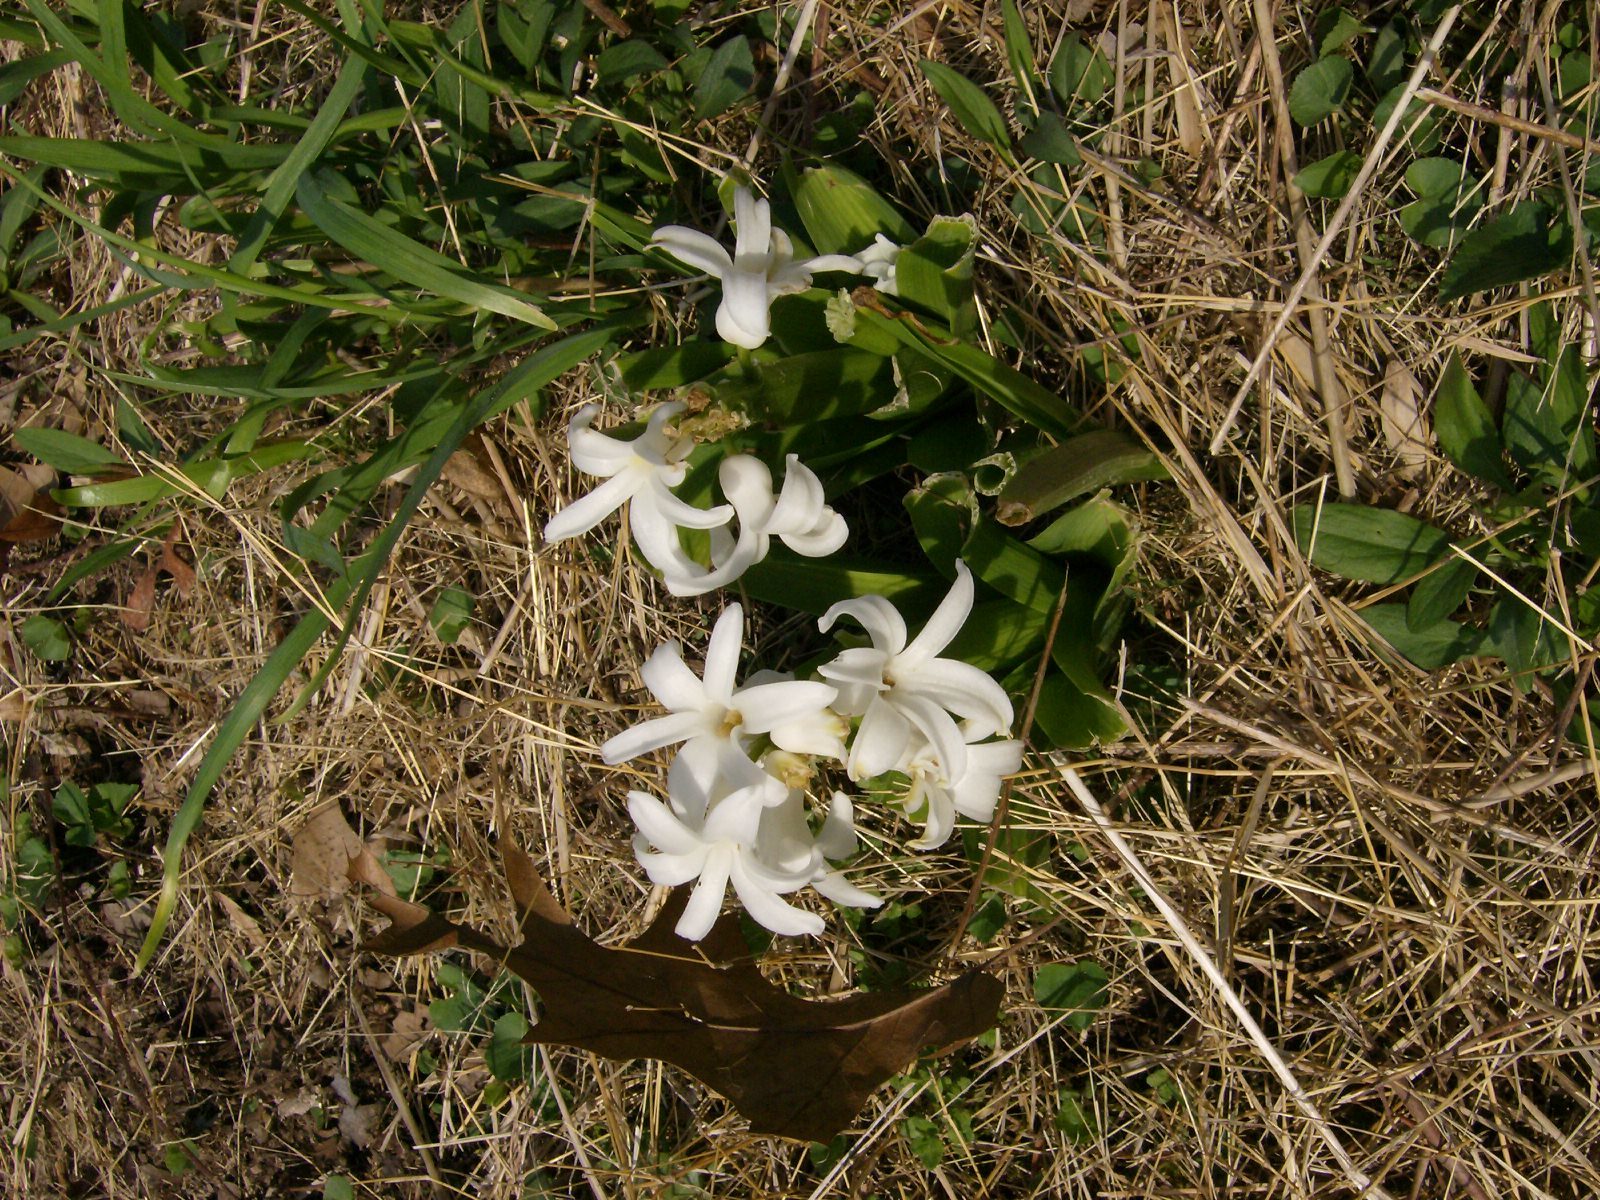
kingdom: Plantae
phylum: Tracheophyta
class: Liliopsida
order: Asparagales
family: Asparagaceae
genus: Hyacinthus
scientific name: Hyacinthus orientalis
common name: Hyacinth
